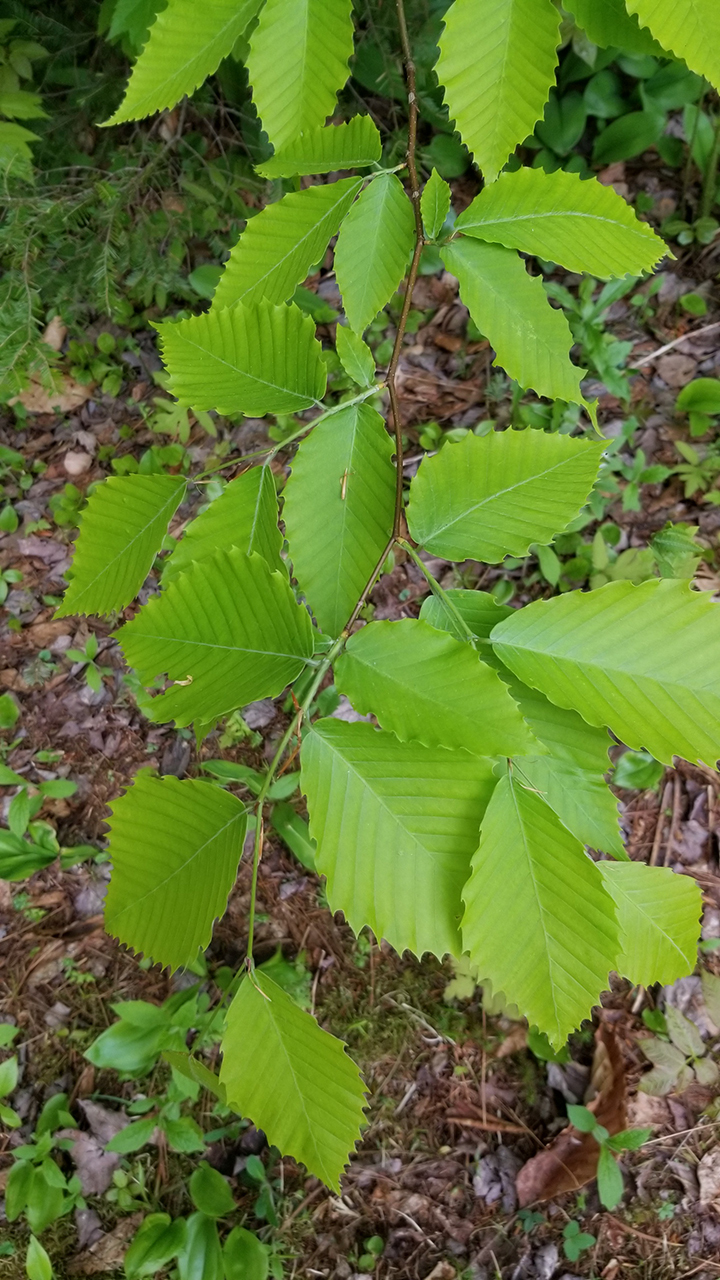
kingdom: Plantae
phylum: Tracheophyta
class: Magnoliopsida
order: Fagales
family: Fagaceae
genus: Fagus
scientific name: Fagus grandifolia
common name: American beech
